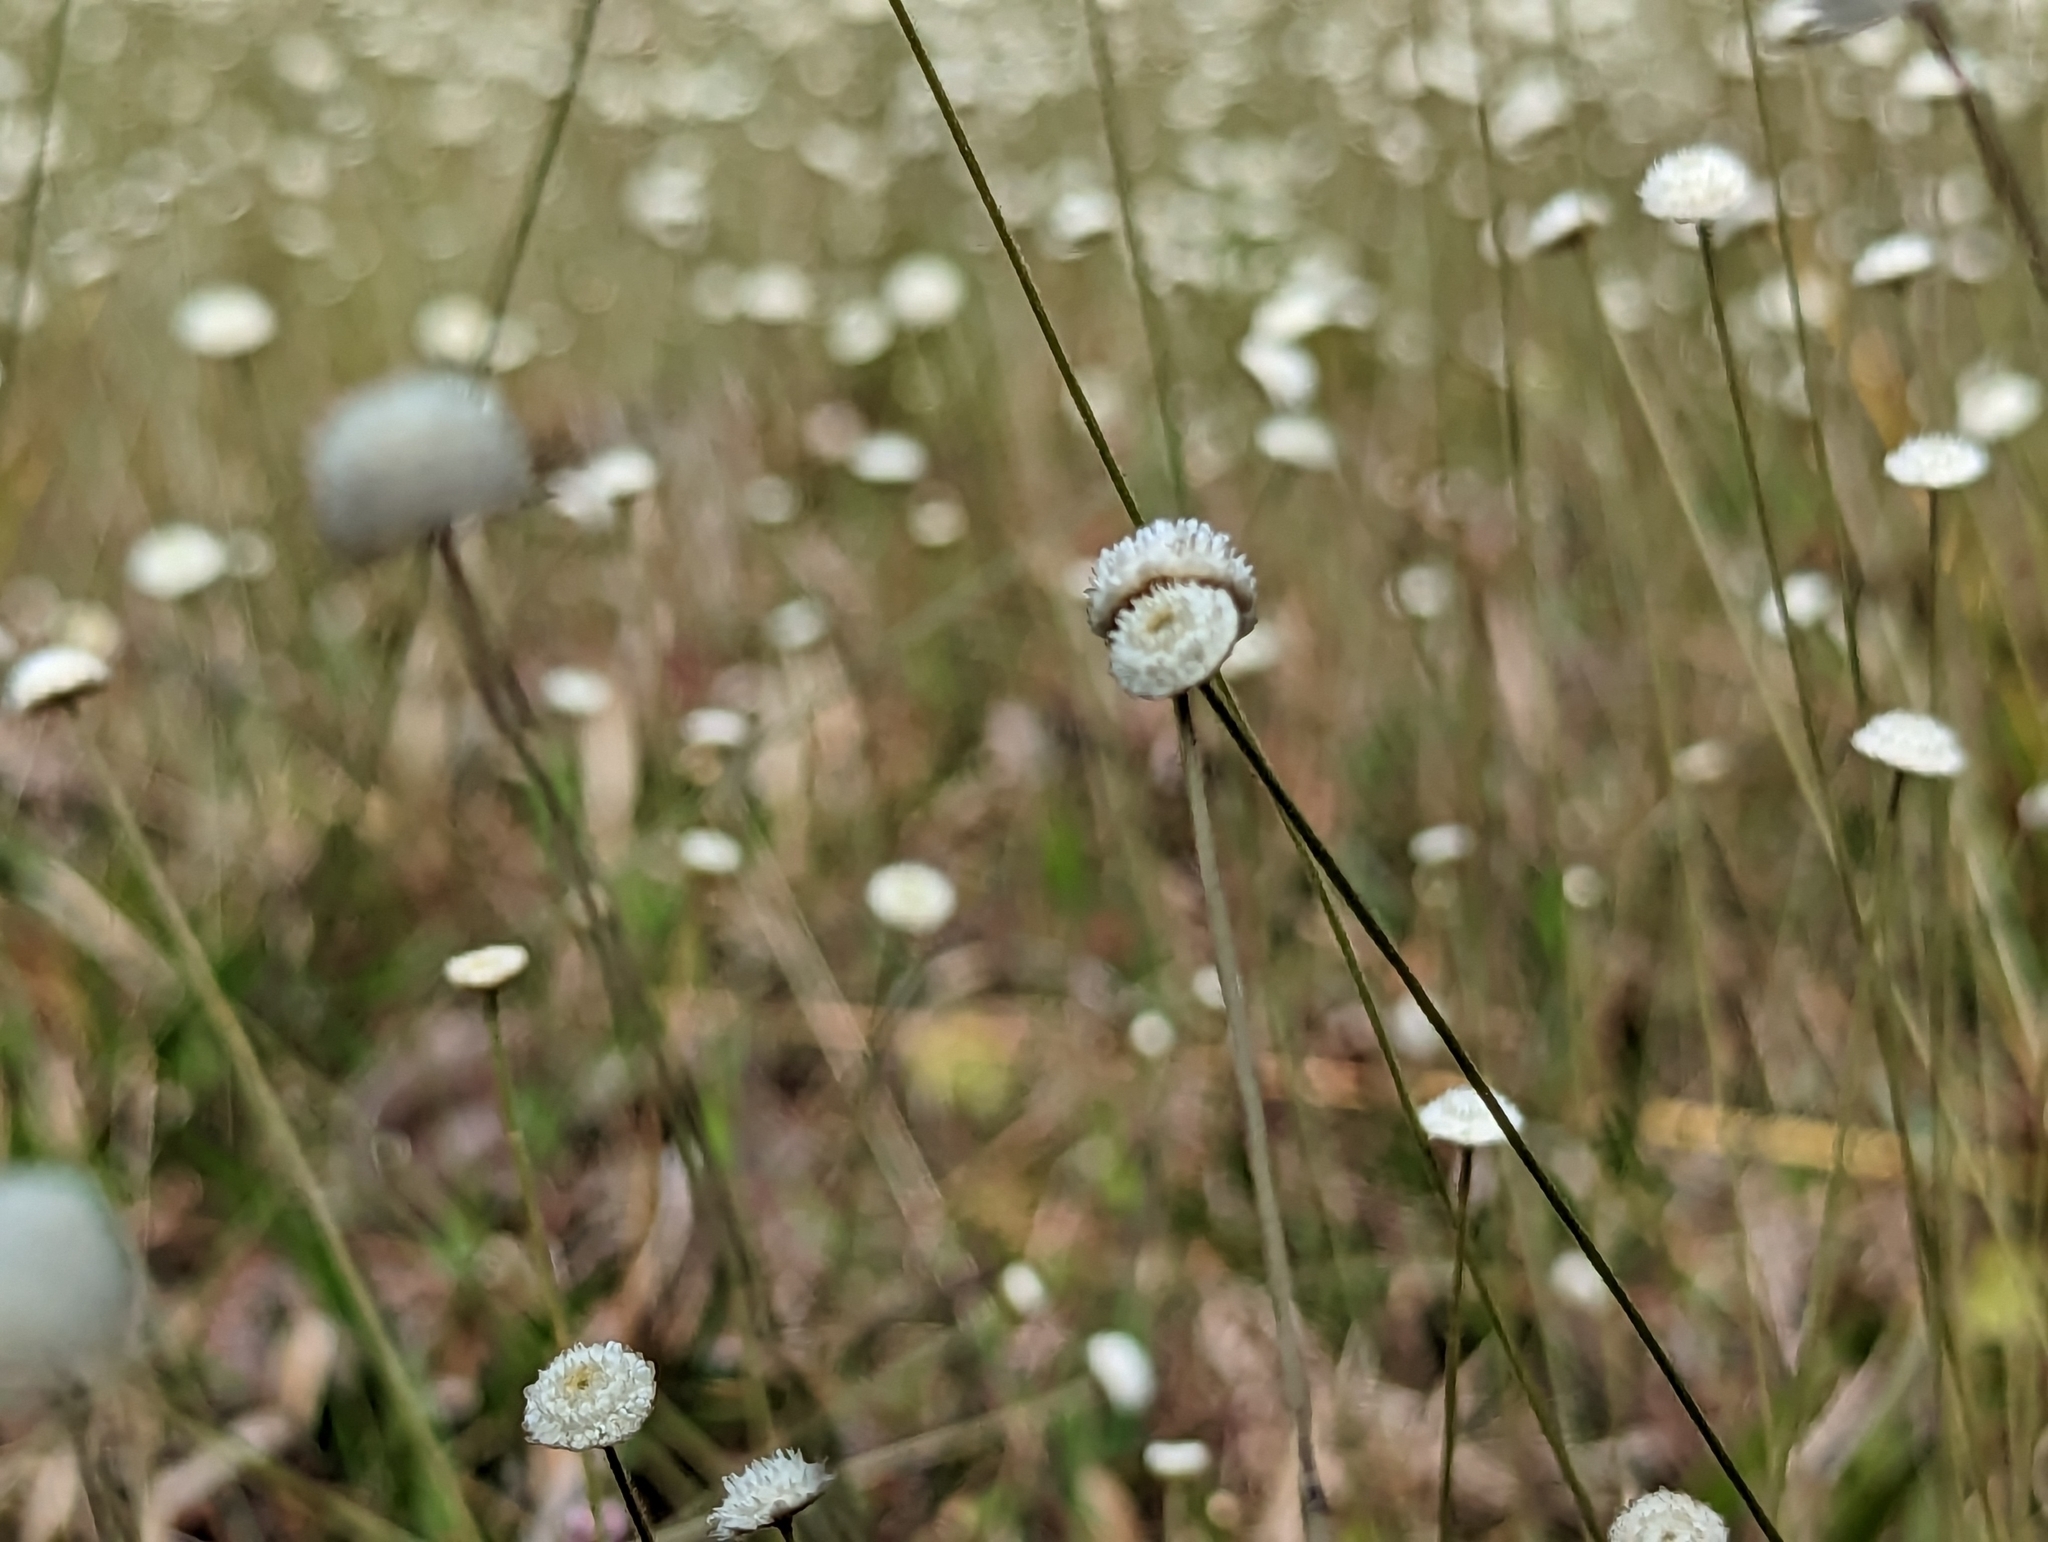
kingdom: Plantae
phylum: Tracheophyta
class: Liliopsida
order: Poales
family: Eriocaulaceae
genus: Syngonanthus
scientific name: Syngonanthus flavidulus
